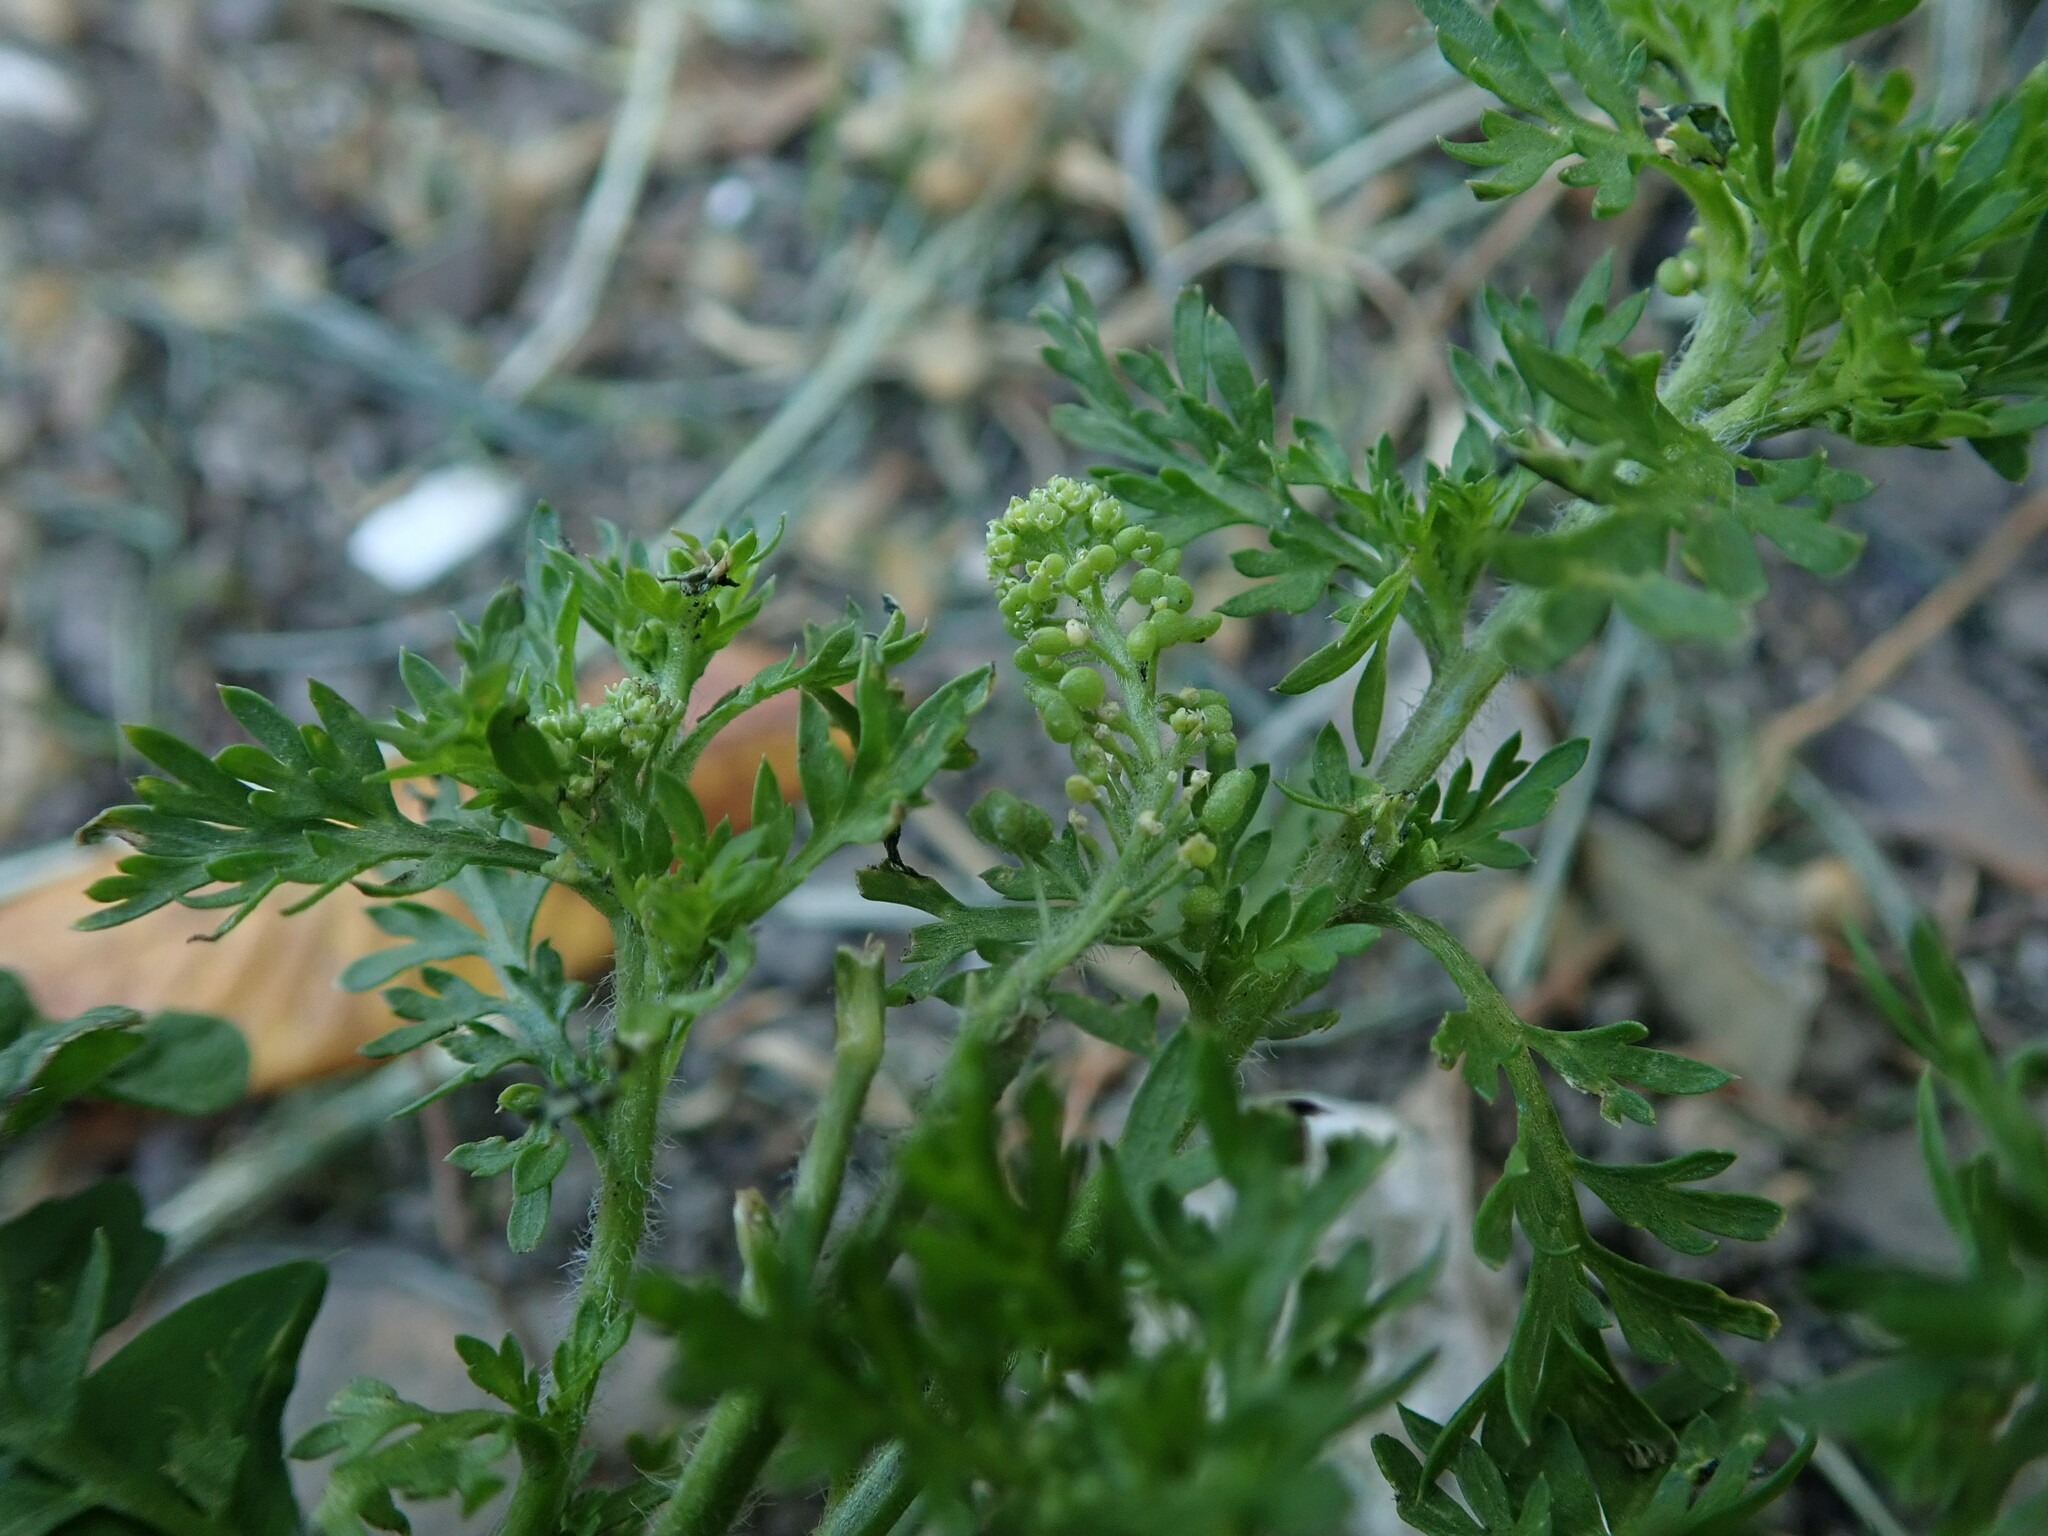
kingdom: Plantae
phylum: Tracheophyta
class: Magnoliopsida
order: Brassicales
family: Brassicaceae
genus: Lepidium
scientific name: Lepidium didymum
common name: Lesser swinecress
